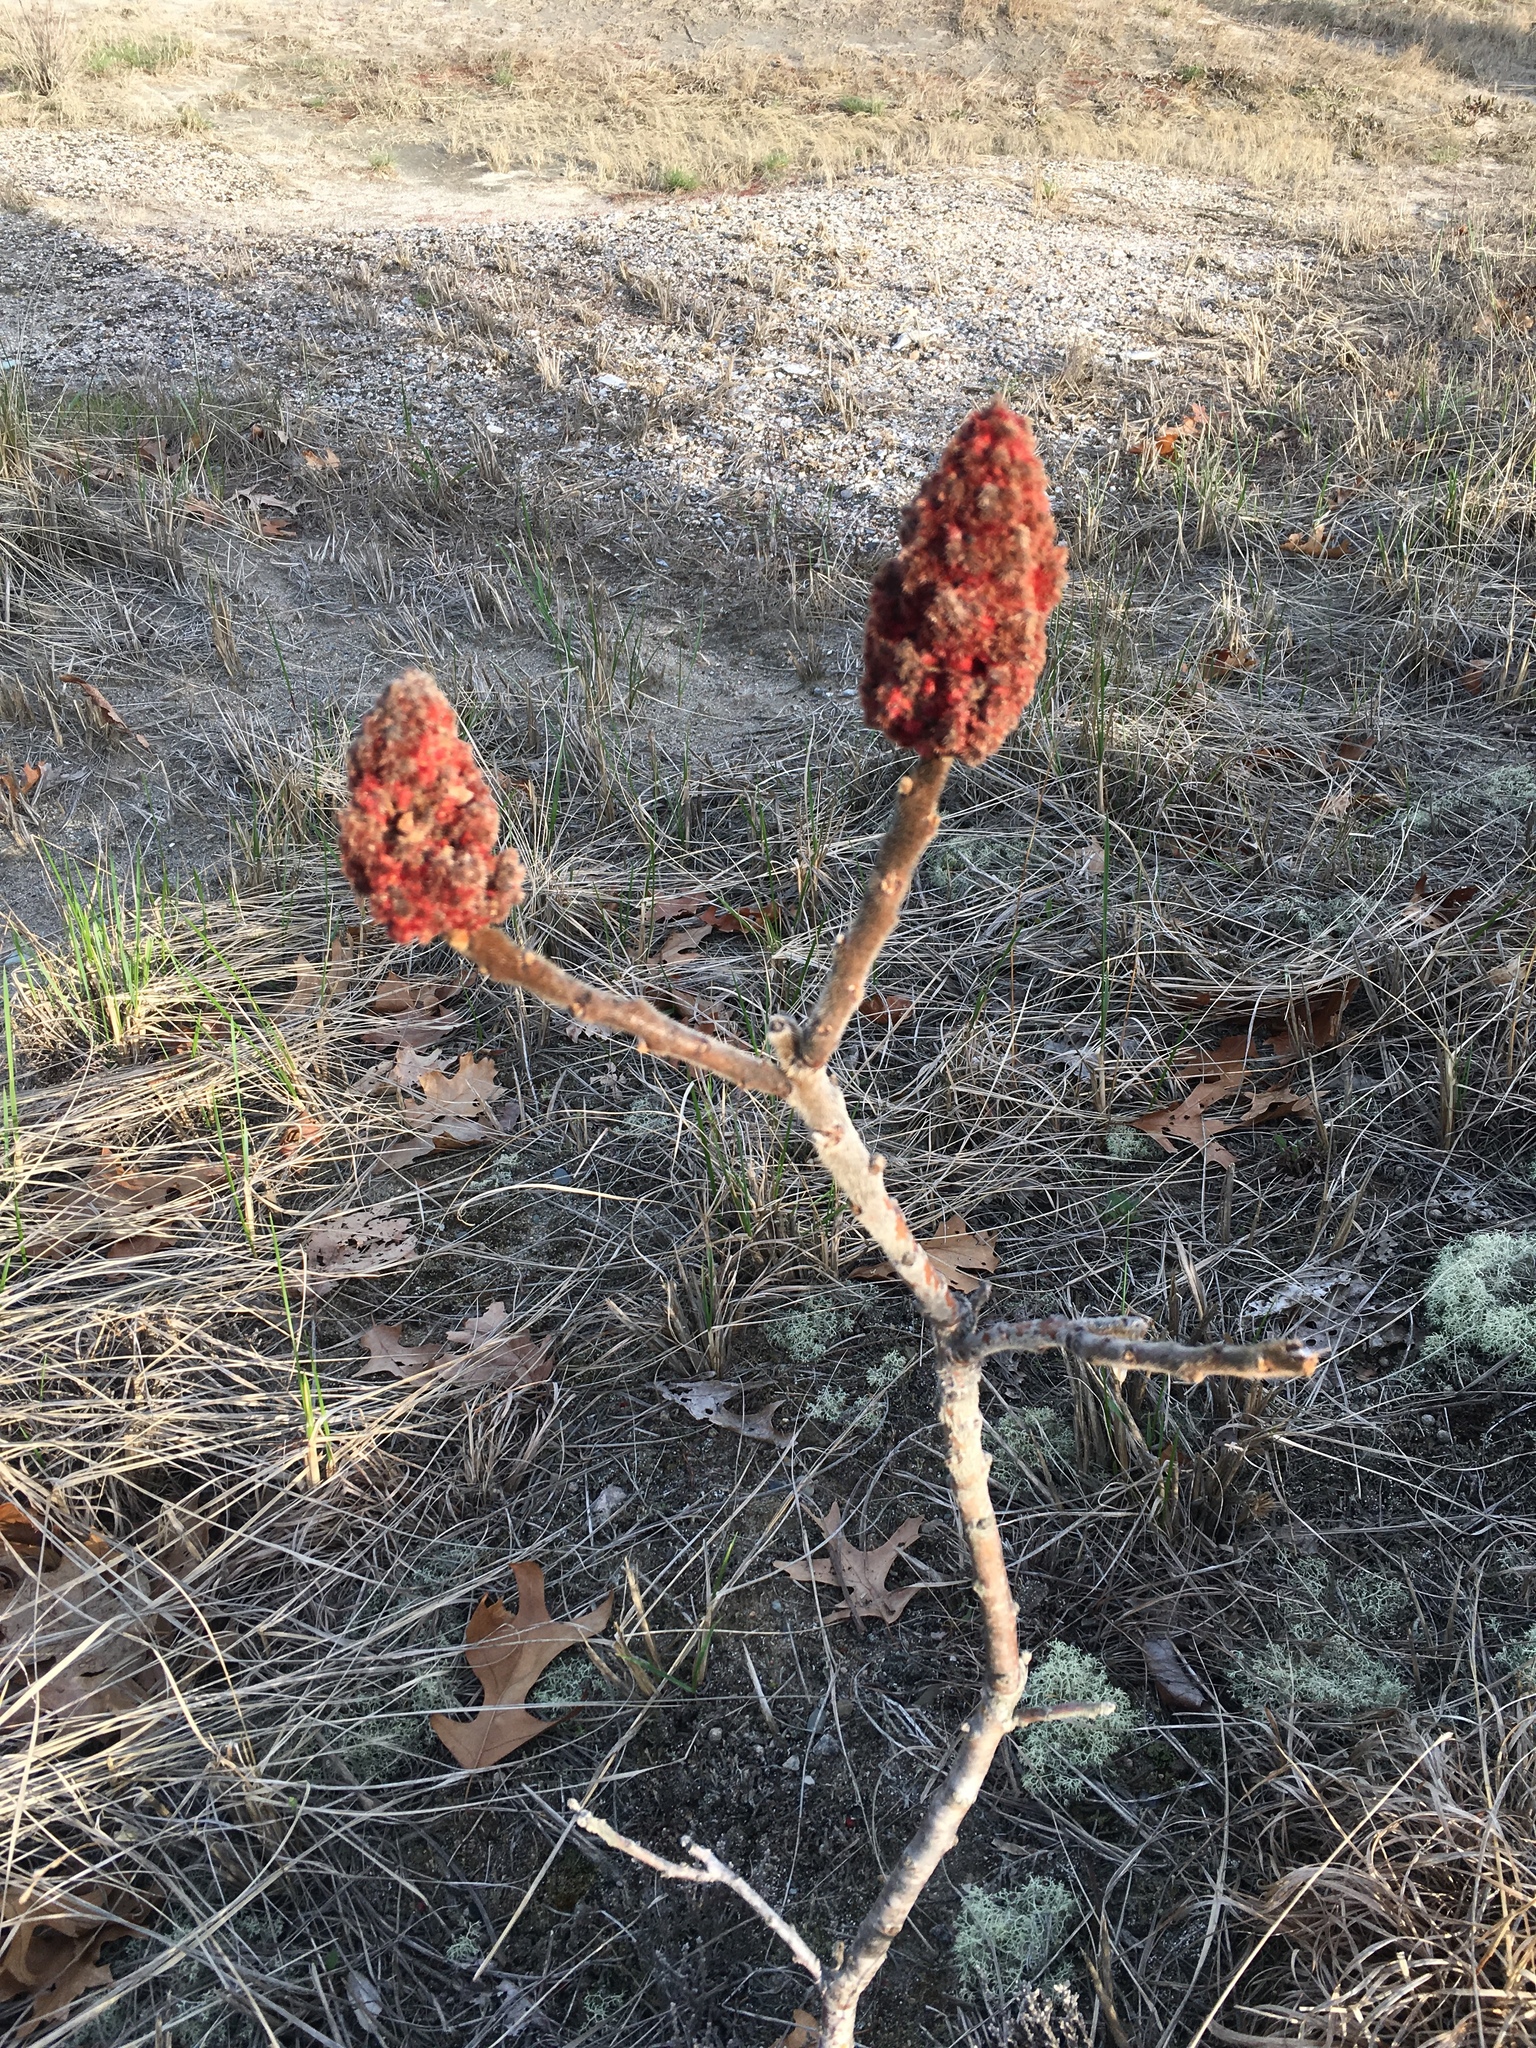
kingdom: Plantae
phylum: Tracheophyta
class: Magnoliopsida
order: Sapindales
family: Anacardiaceae
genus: Rhus
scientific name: Rhus typhina
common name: Staghorn sumac
